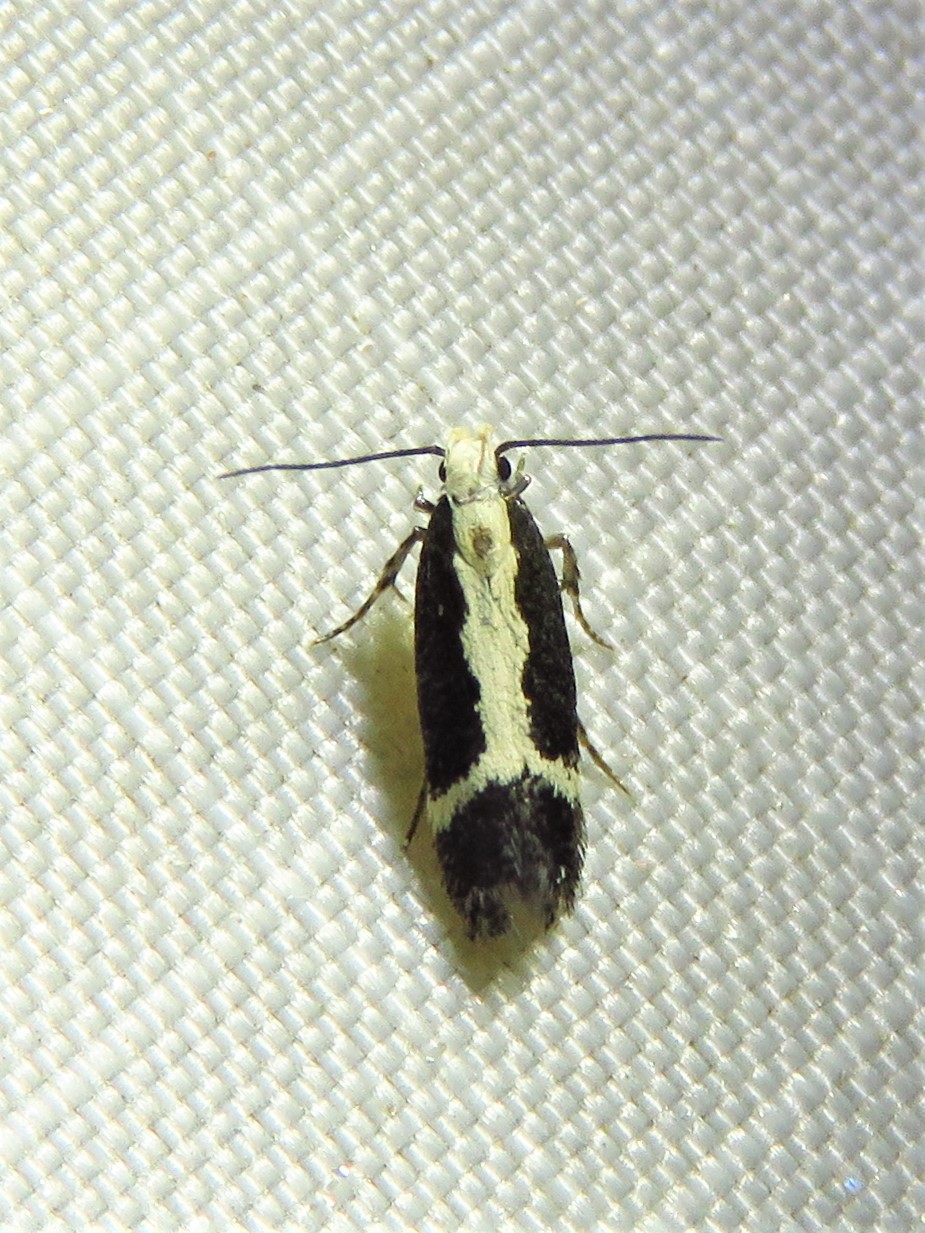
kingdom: Animalia
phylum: Arthropoda
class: Insecta
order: Lepidoptera
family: Gelechiidae
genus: Aroga
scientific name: Aroga camptogramma
